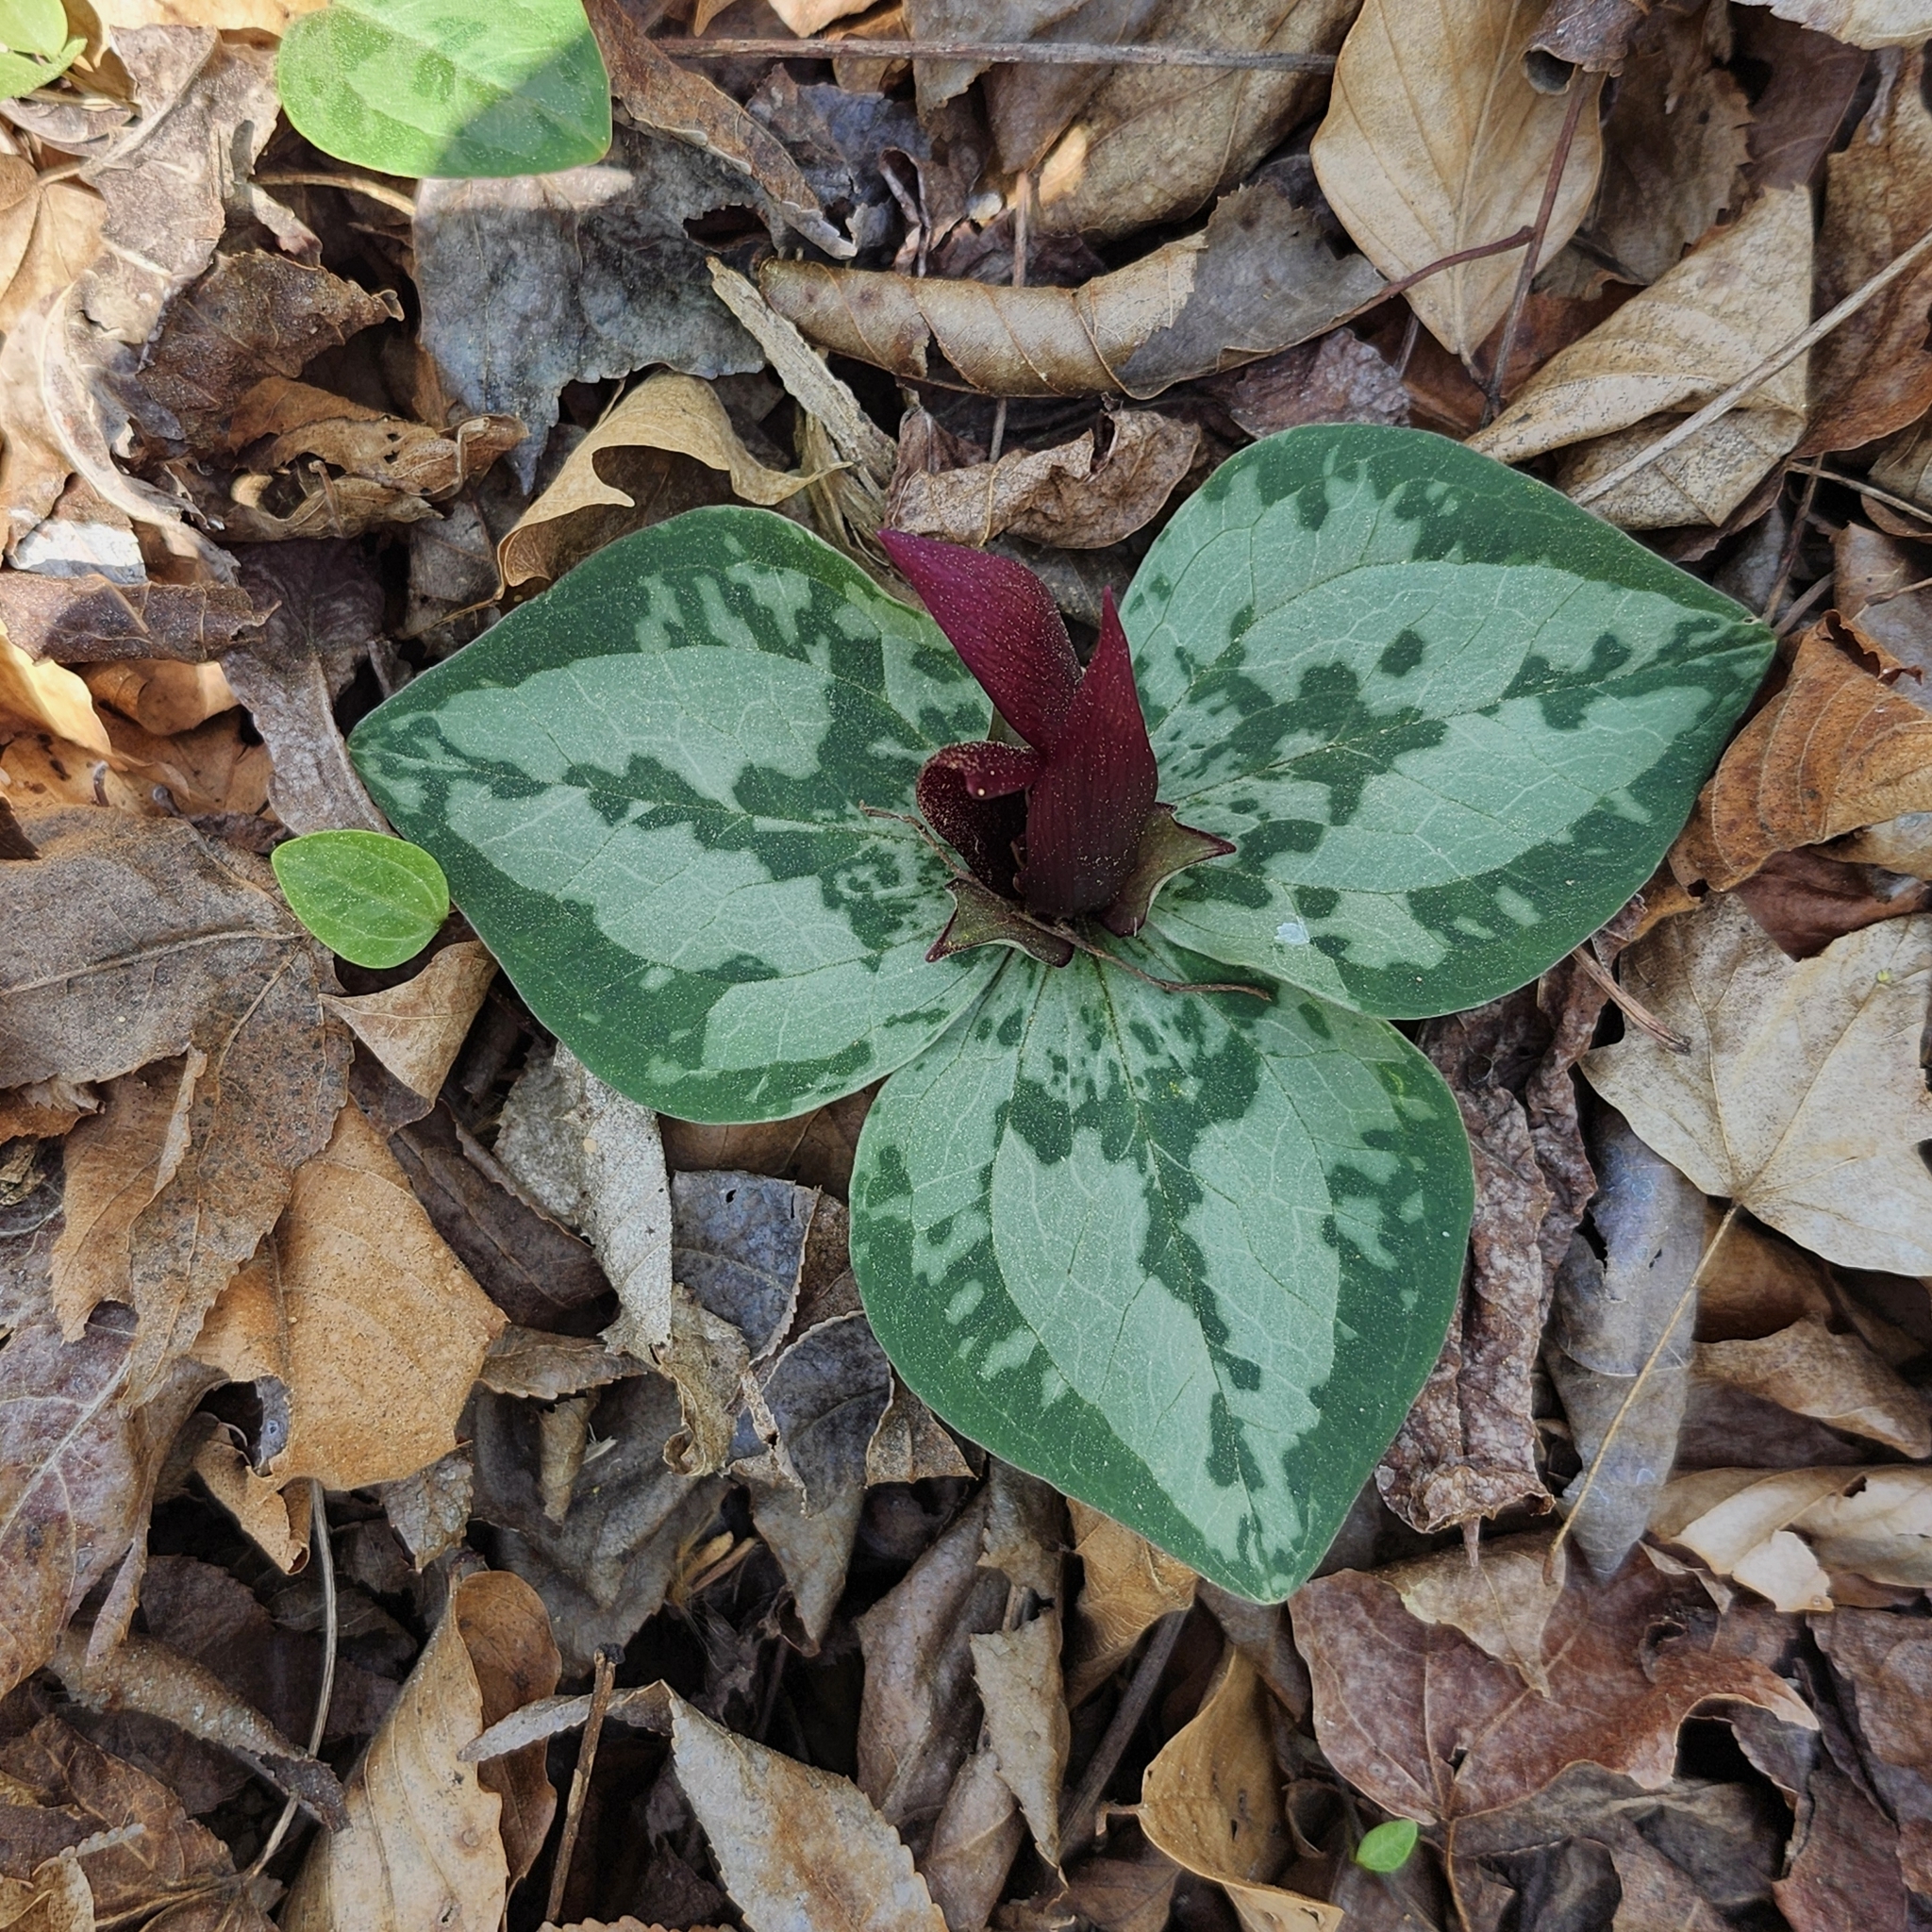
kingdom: Plantae
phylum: Tracheophyta
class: Liliopsida
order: Liliales
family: Melanthiaceae
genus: Trillium
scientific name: Trillium decumbens
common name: Decumbent trillium
